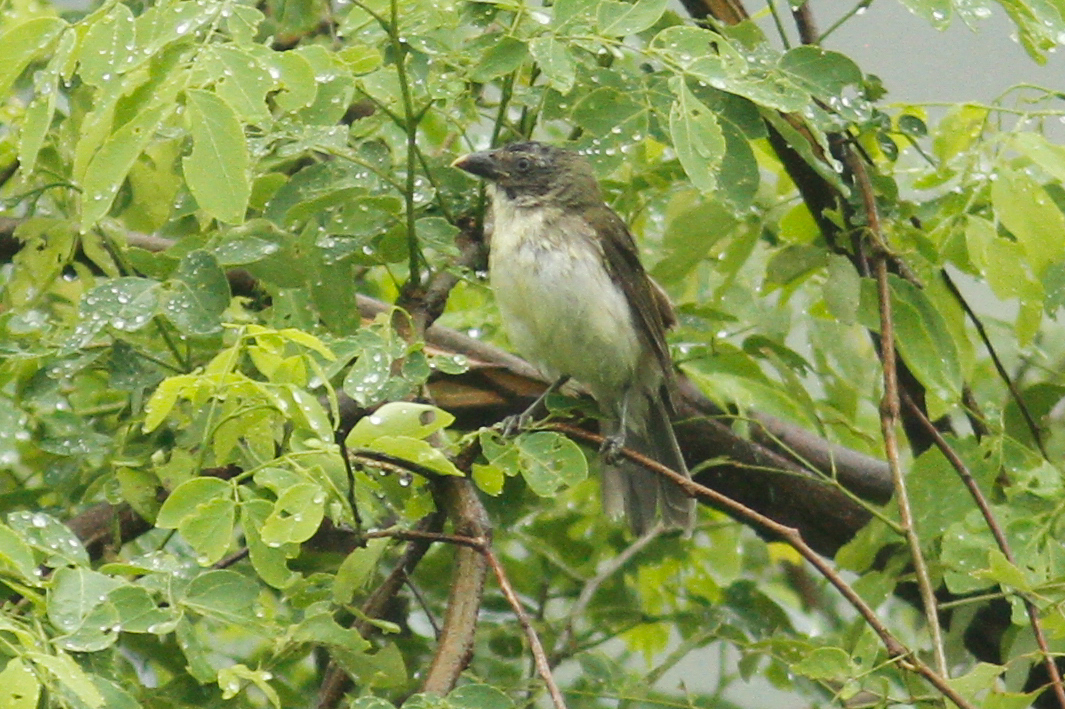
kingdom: Animalia
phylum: Chordata
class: Aves
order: Passeriformes
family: Thraupidae
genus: Saltator
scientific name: Saltator striatipectus
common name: Streaked saltator
